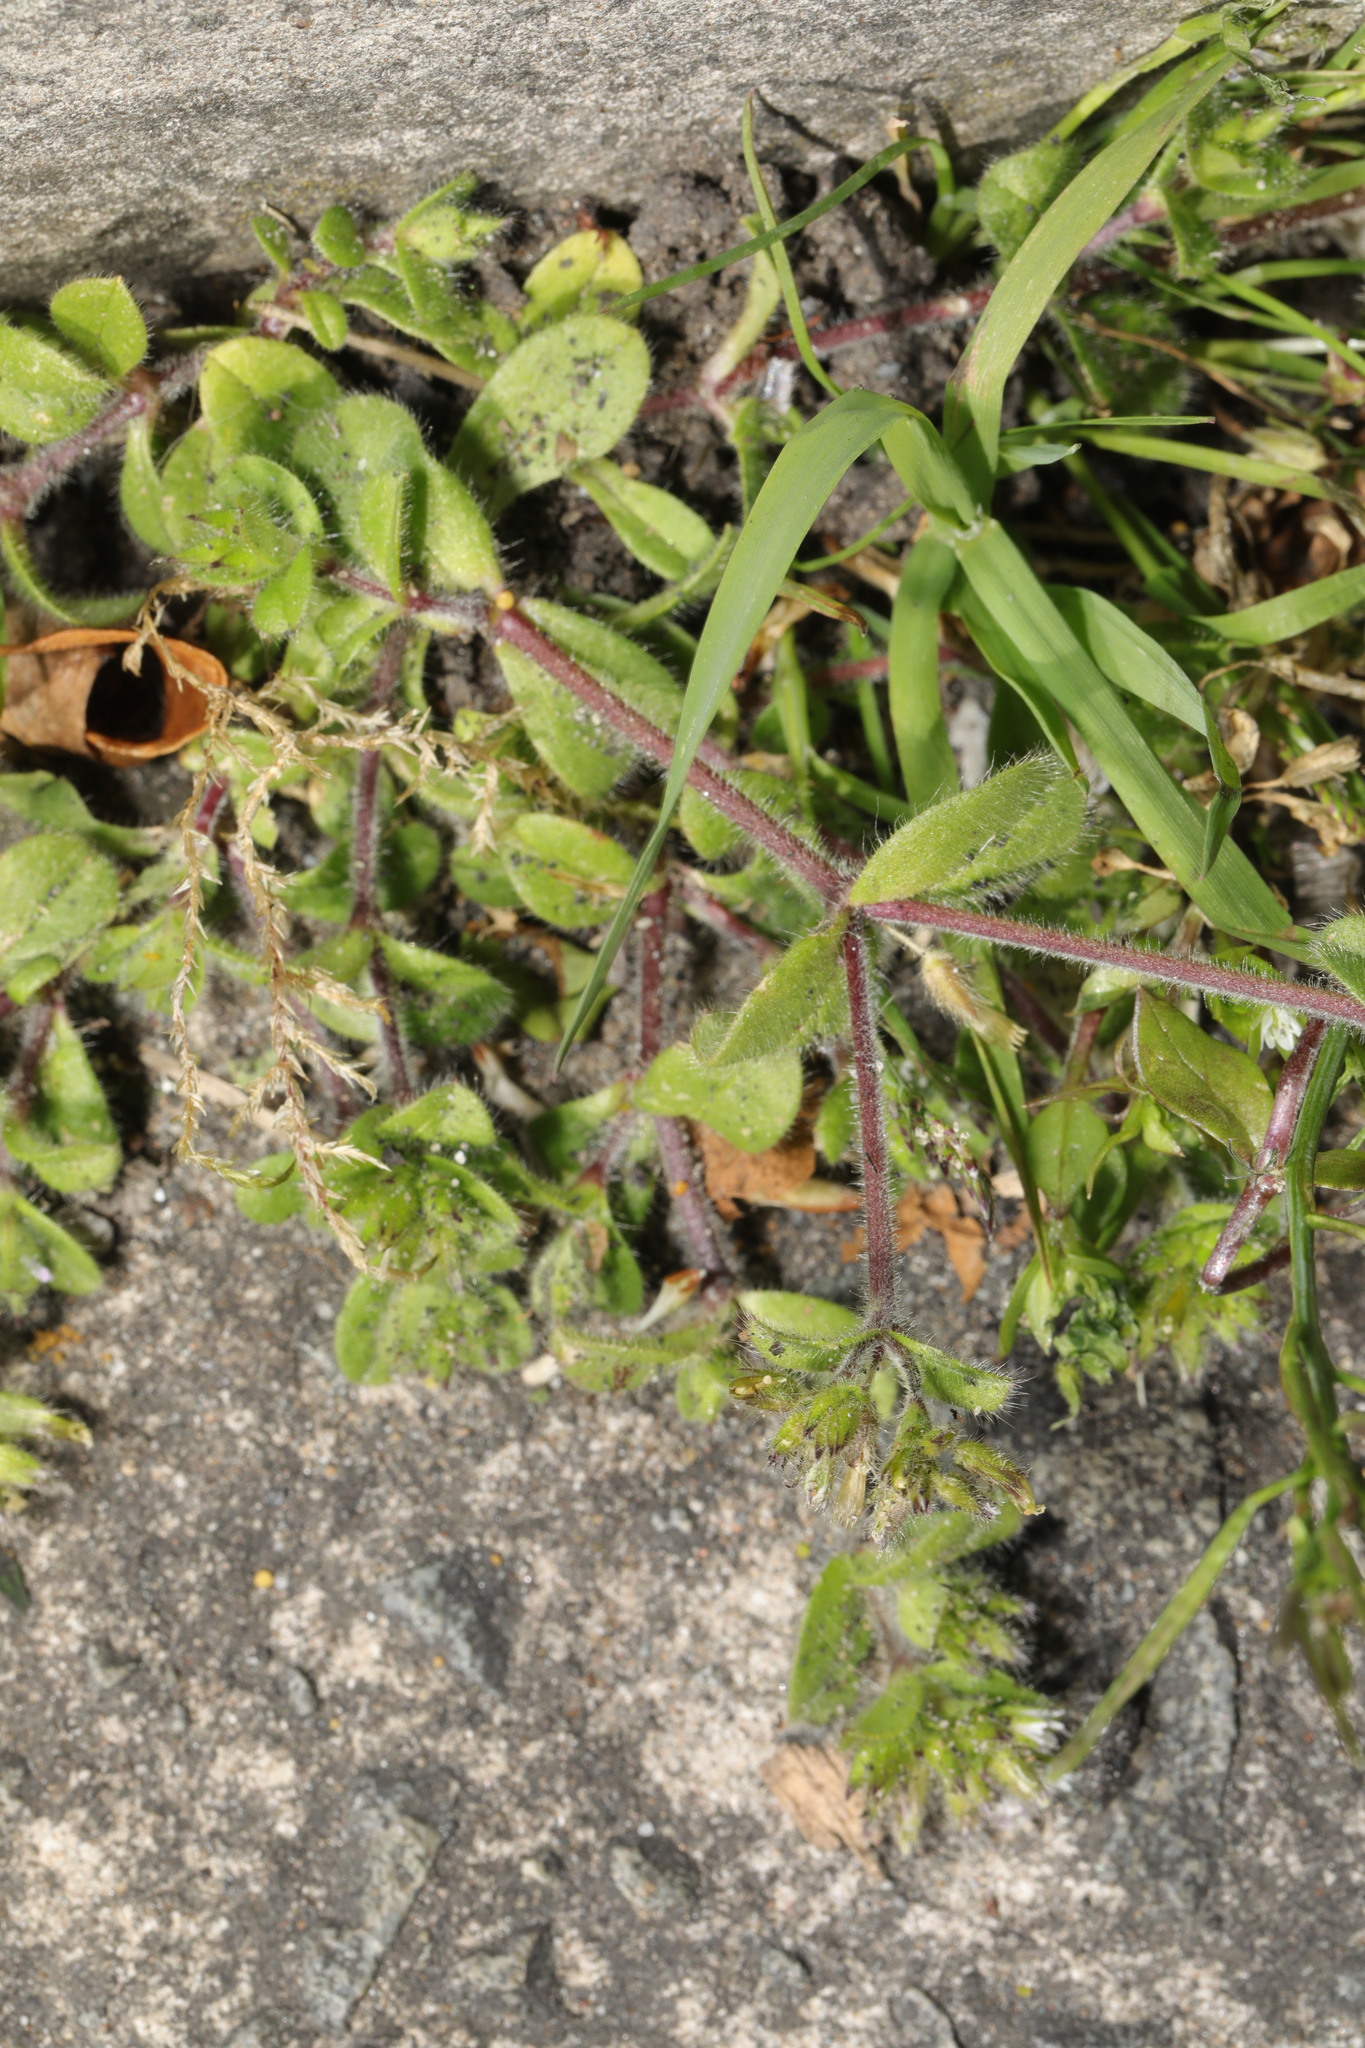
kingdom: Plantae
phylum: Tracheophyta
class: Magnoliopsida
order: Caryophyllales
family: Caryophyllaceae
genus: Cerastium
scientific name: Cerastium glomeratum
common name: Sticky chickweed
